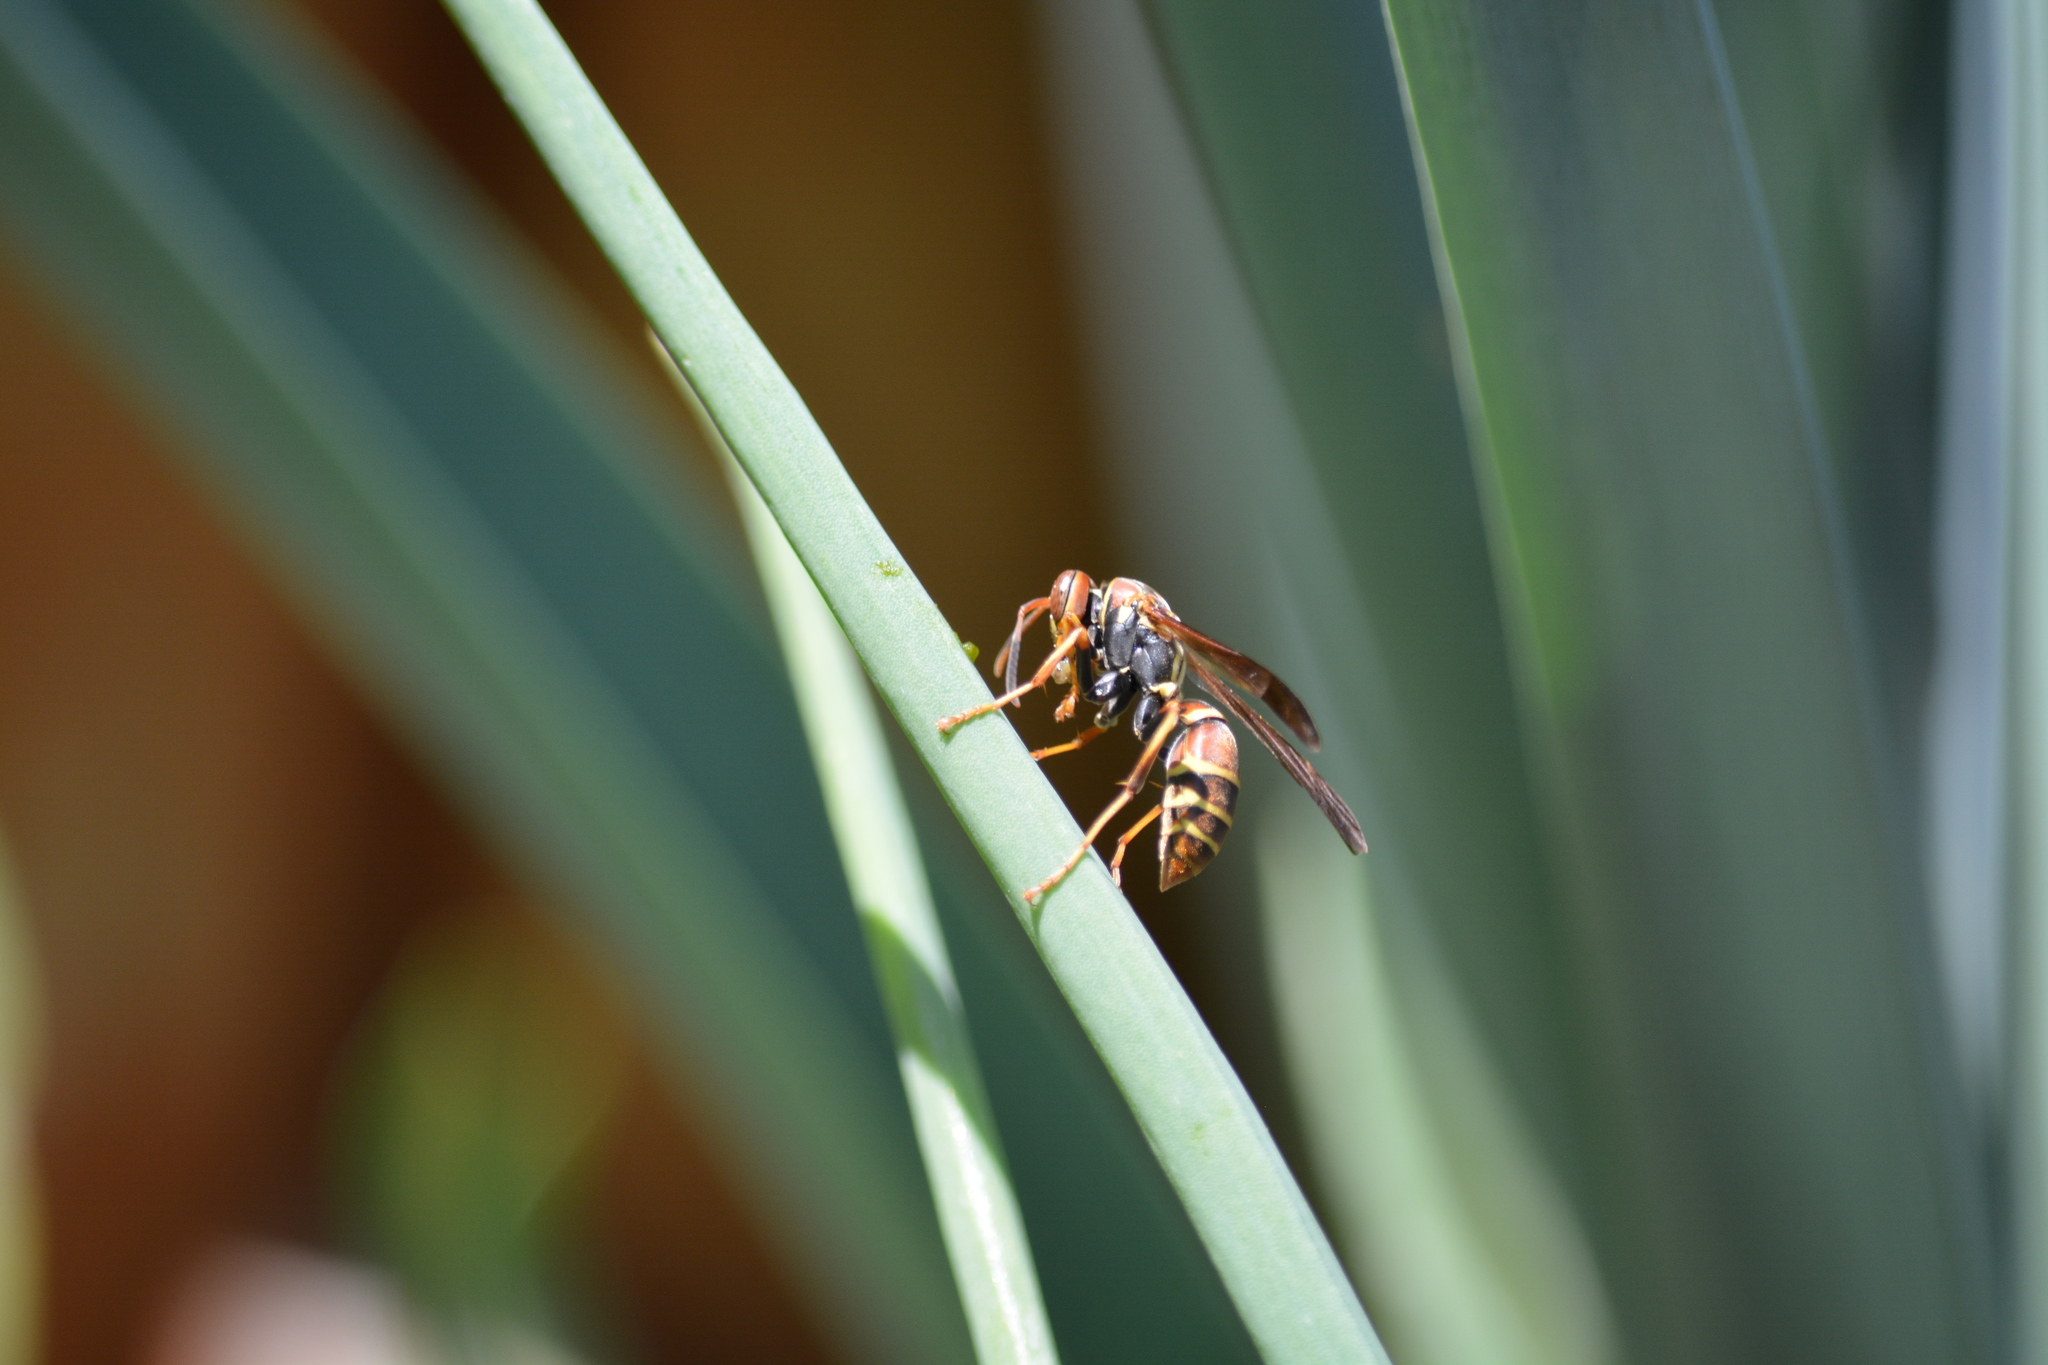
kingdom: Animalia
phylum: Arthropoda
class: Insecta
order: Hymenoptera
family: Eumenidae
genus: Polistes
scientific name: Polistes dorsalis
